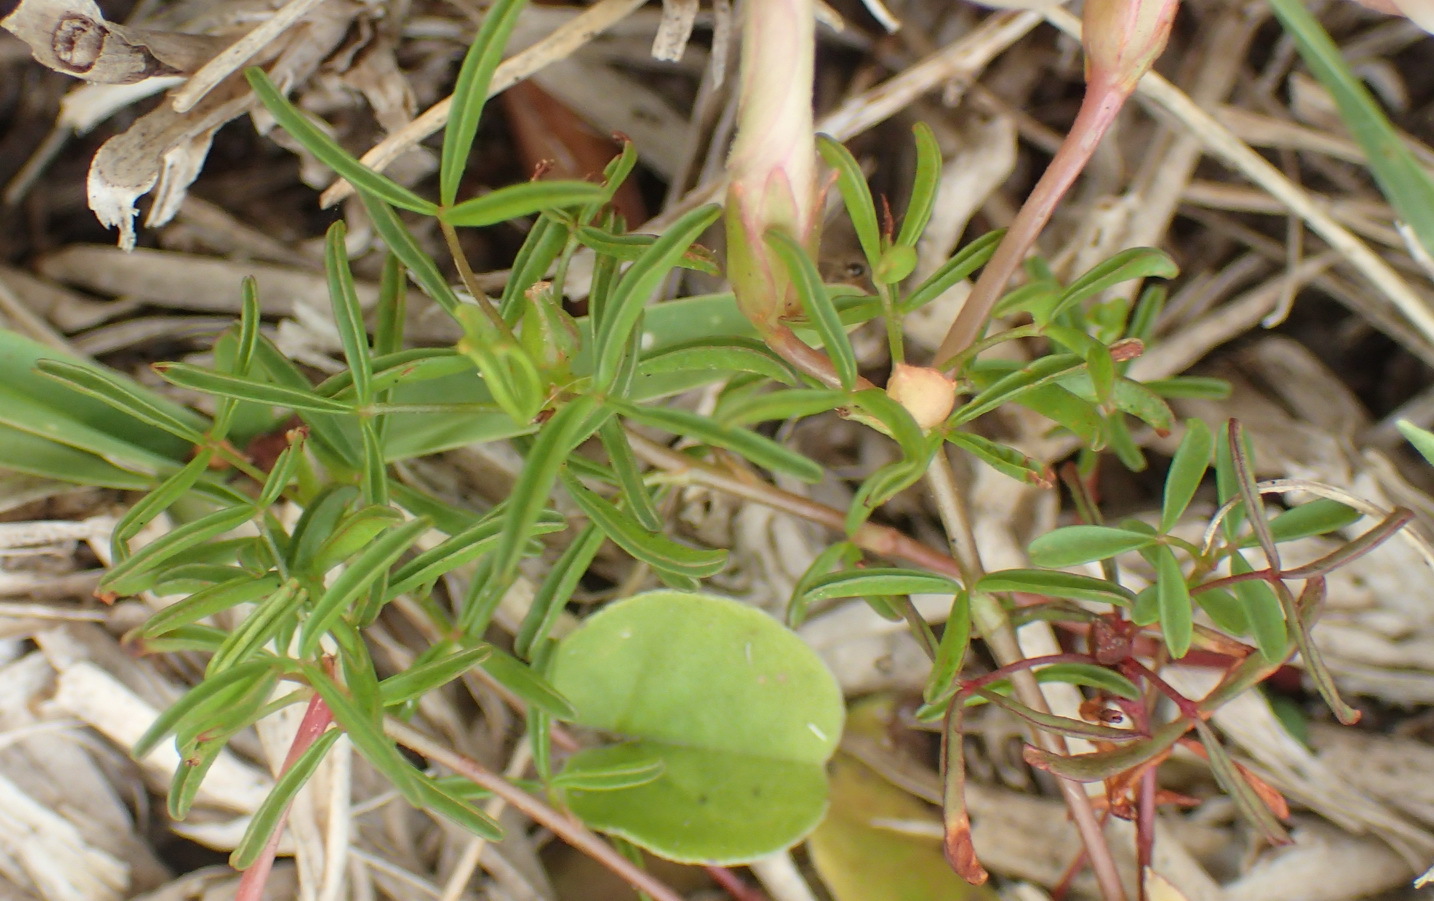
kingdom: Plantae
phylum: Tracheophyta
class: Magnoliopsida
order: Oxalidales
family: Oxalidaceae
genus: Oxalis
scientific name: Oxalis ciliaris
